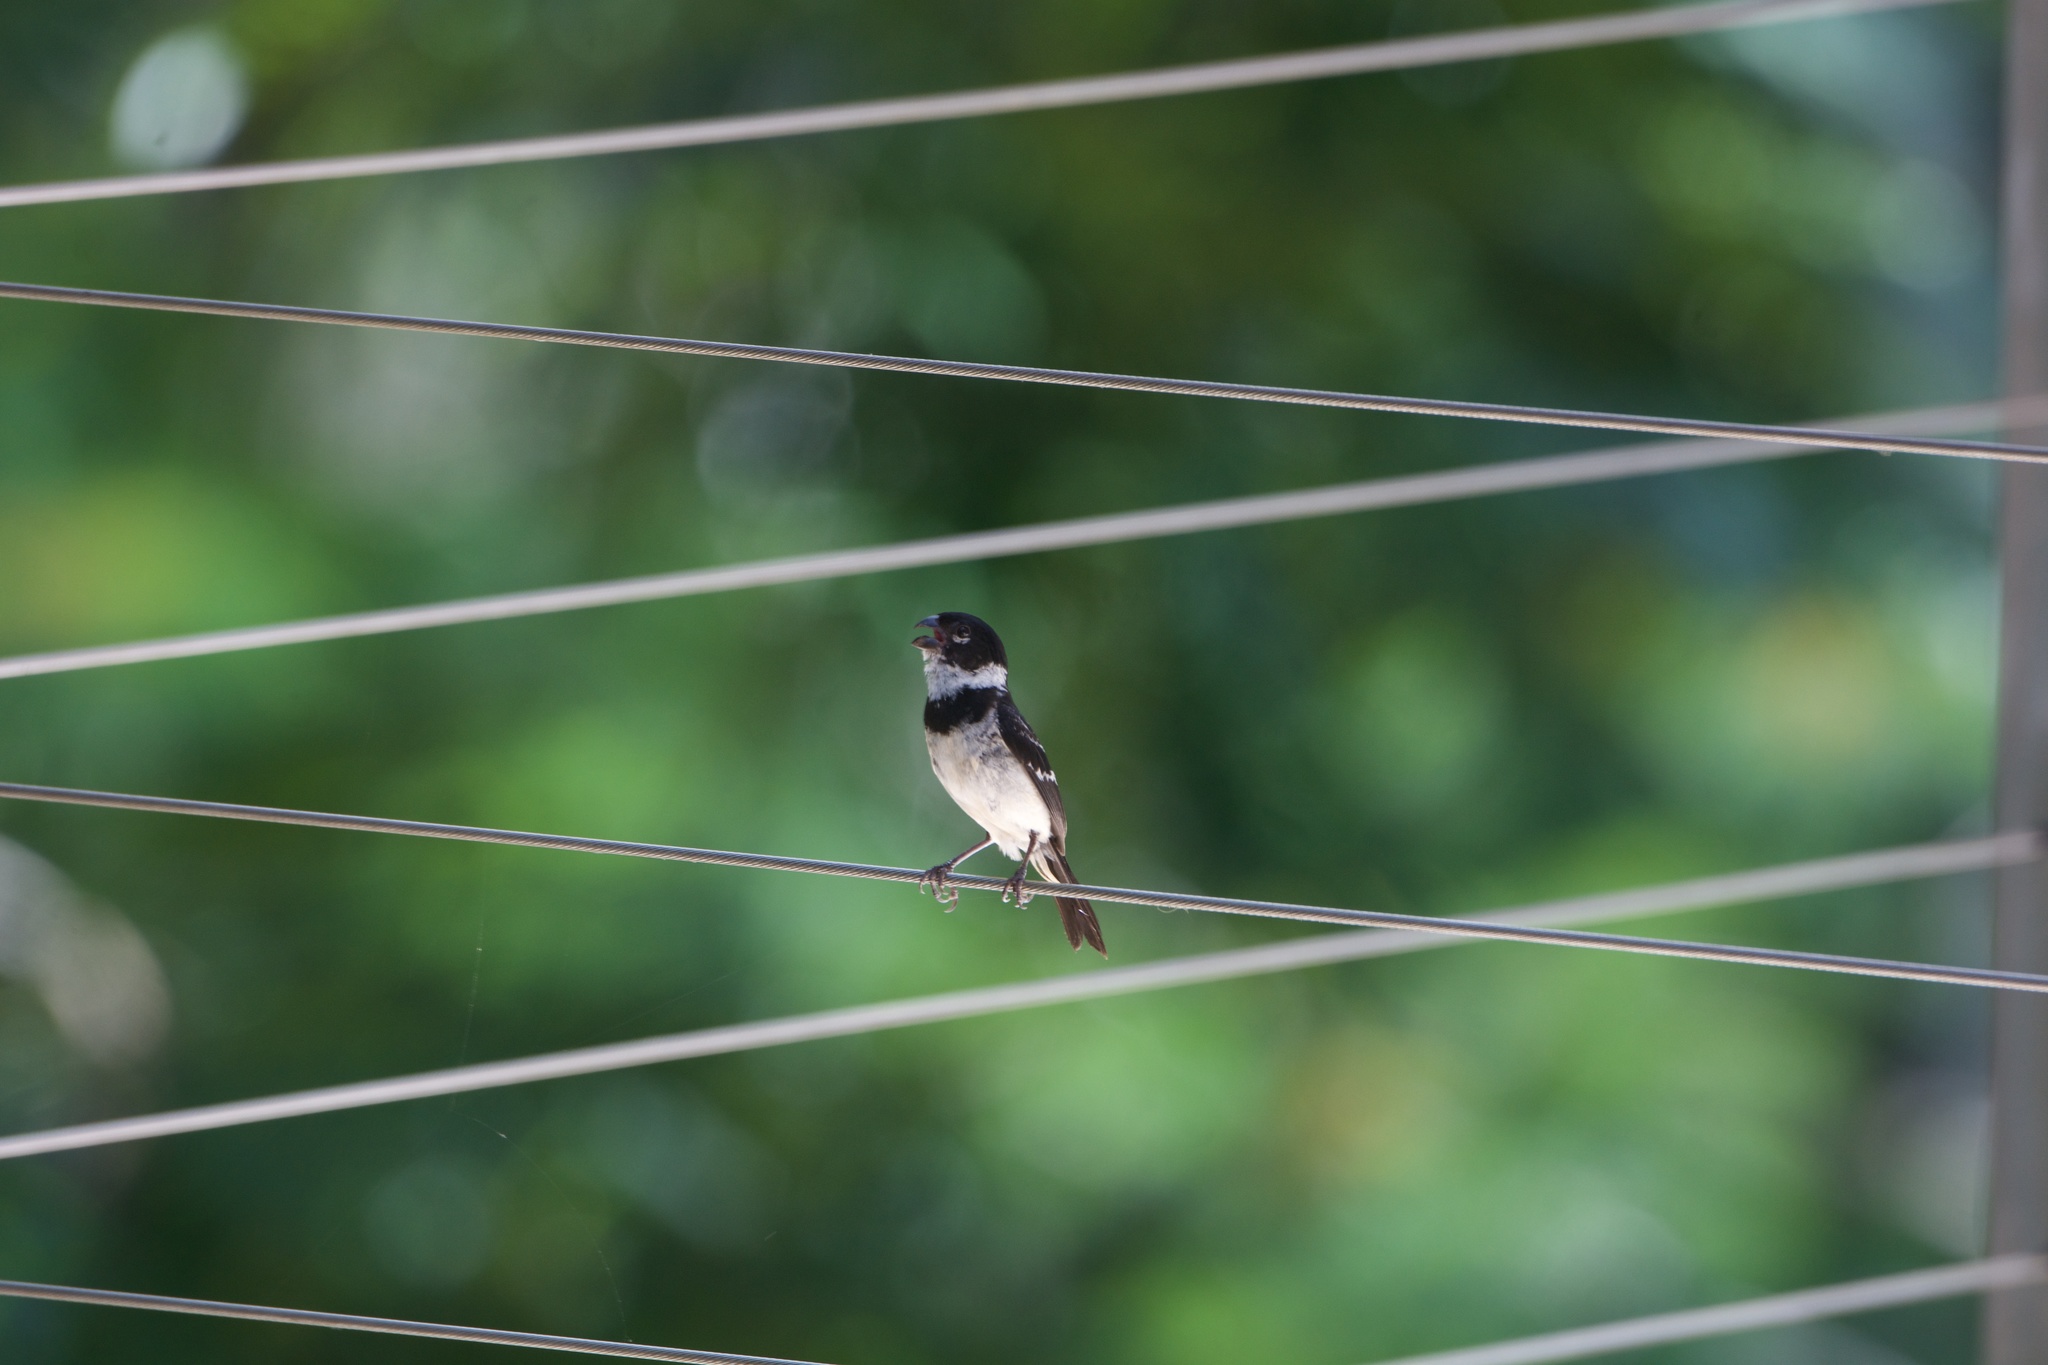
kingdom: Animalia
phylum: Chordata
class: Aves
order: Passeriformes
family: Thraupidae
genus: Sporophila
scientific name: Sporophila morelleti
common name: Morelet's seedeater
